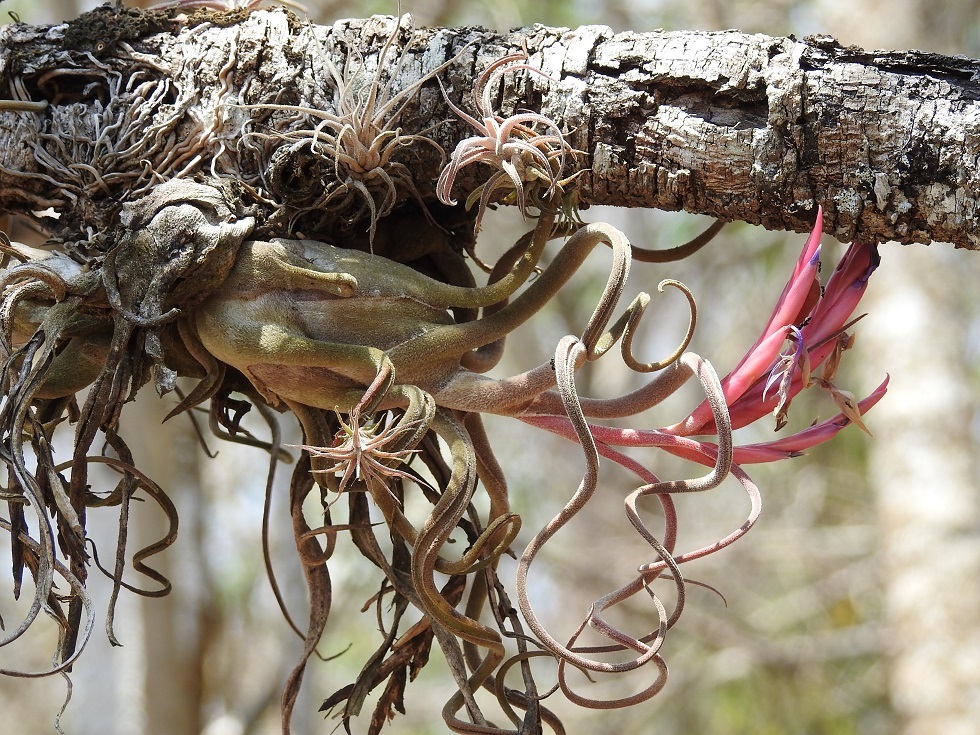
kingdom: Plantae
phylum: Tracheophyta
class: Liliopsida
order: Poales
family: Bromeliaceae
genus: Tillandsia
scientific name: Tillandsia caput-medusae
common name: Octopus plant
